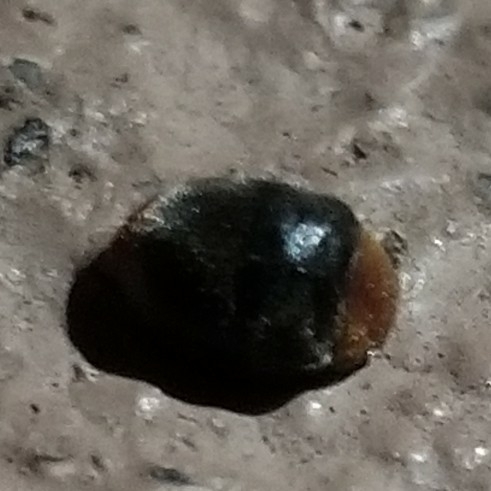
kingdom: Animalia
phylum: Arthropoda
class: Insecta
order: Coleoptera
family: Coccinellidae
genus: Cryptolaemus
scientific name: Cryptolaemus montrouzieri
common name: Mealybug destroyer
